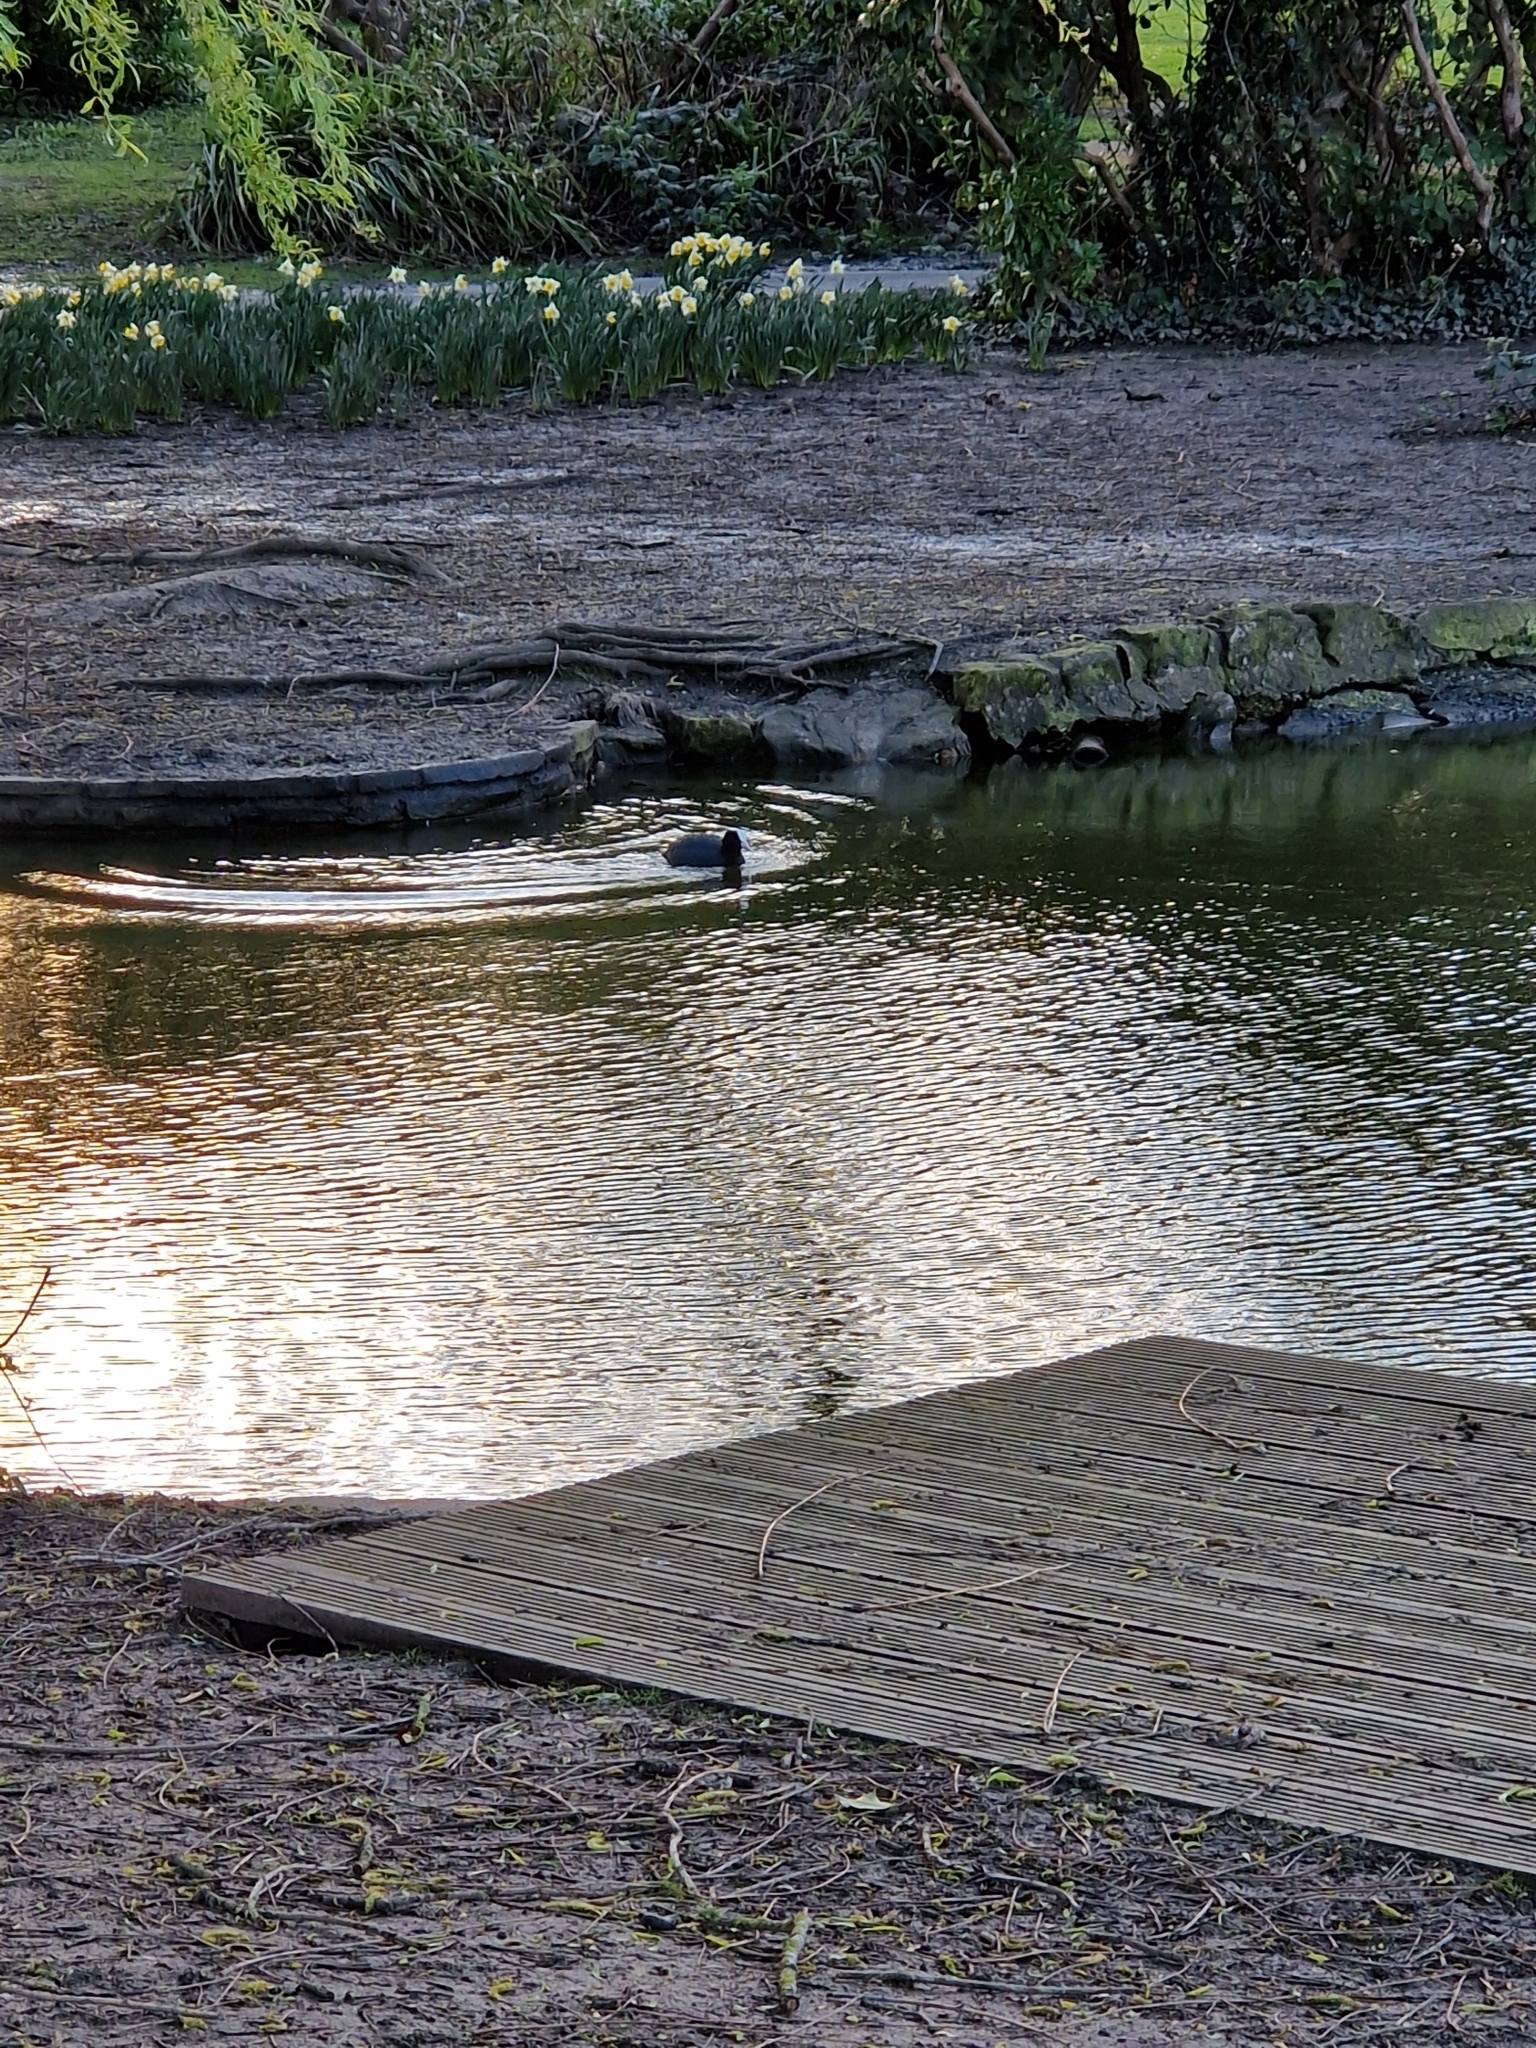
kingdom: Animalia
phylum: Chordata
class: Aves
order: Gruiformes
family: Rallidae
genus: Fulica
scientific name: Fulica atra
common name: Eurasian coot
